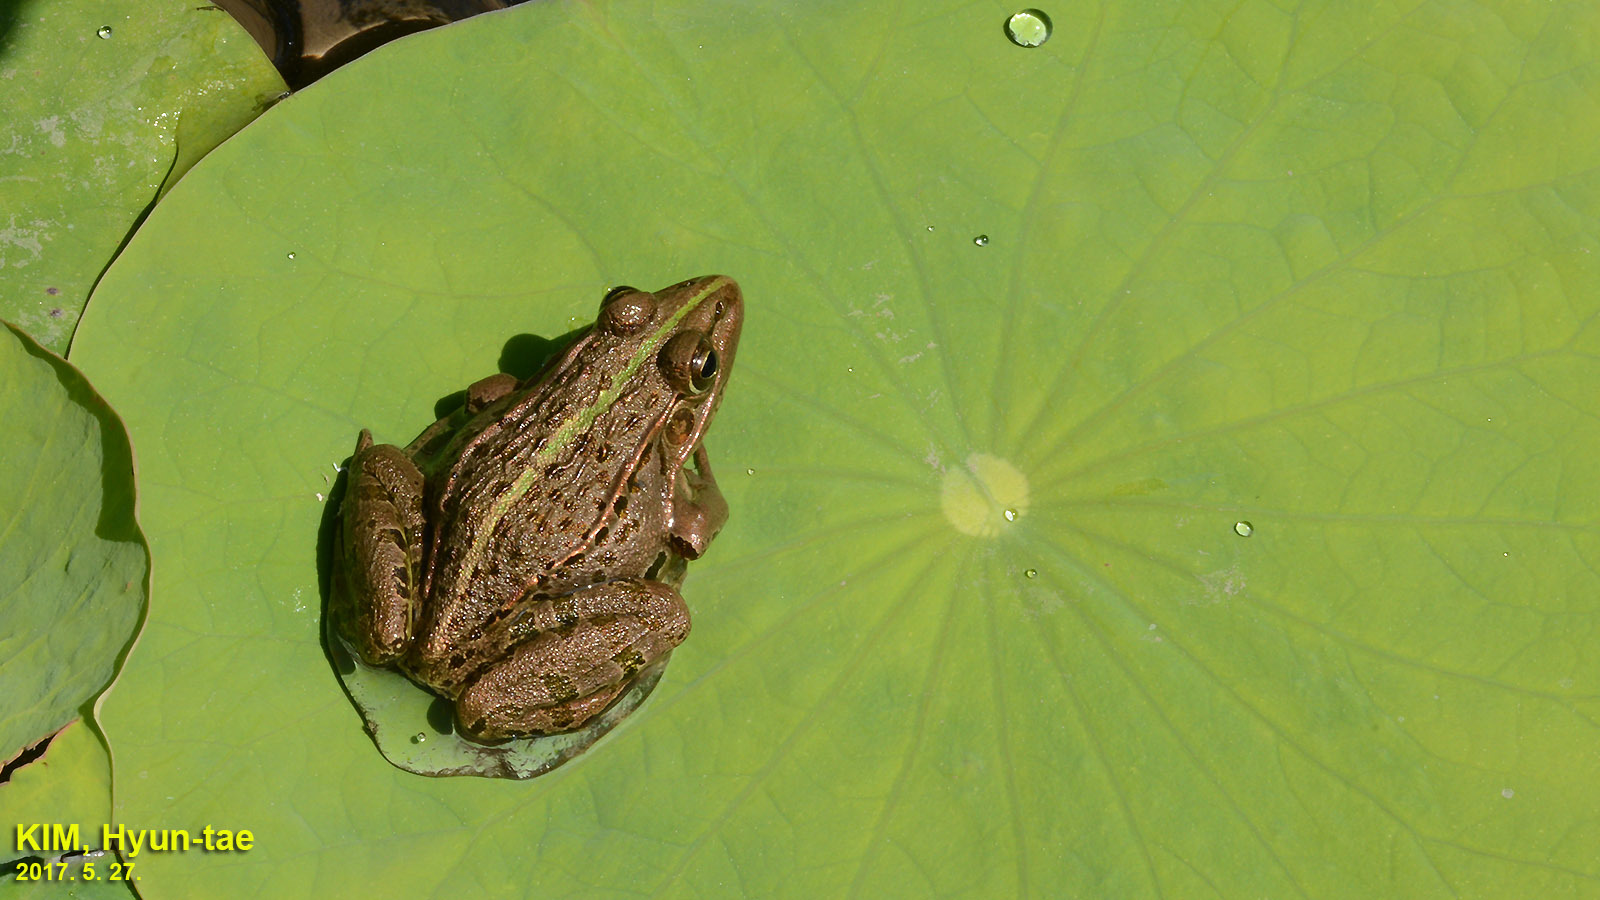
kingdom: Animalia
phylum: Chordata
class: Amphibia
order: Anura
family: Ranidae
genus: Pelophylax
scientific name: Pelophylax nigromaculatus
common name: Black-spotted pond frog
